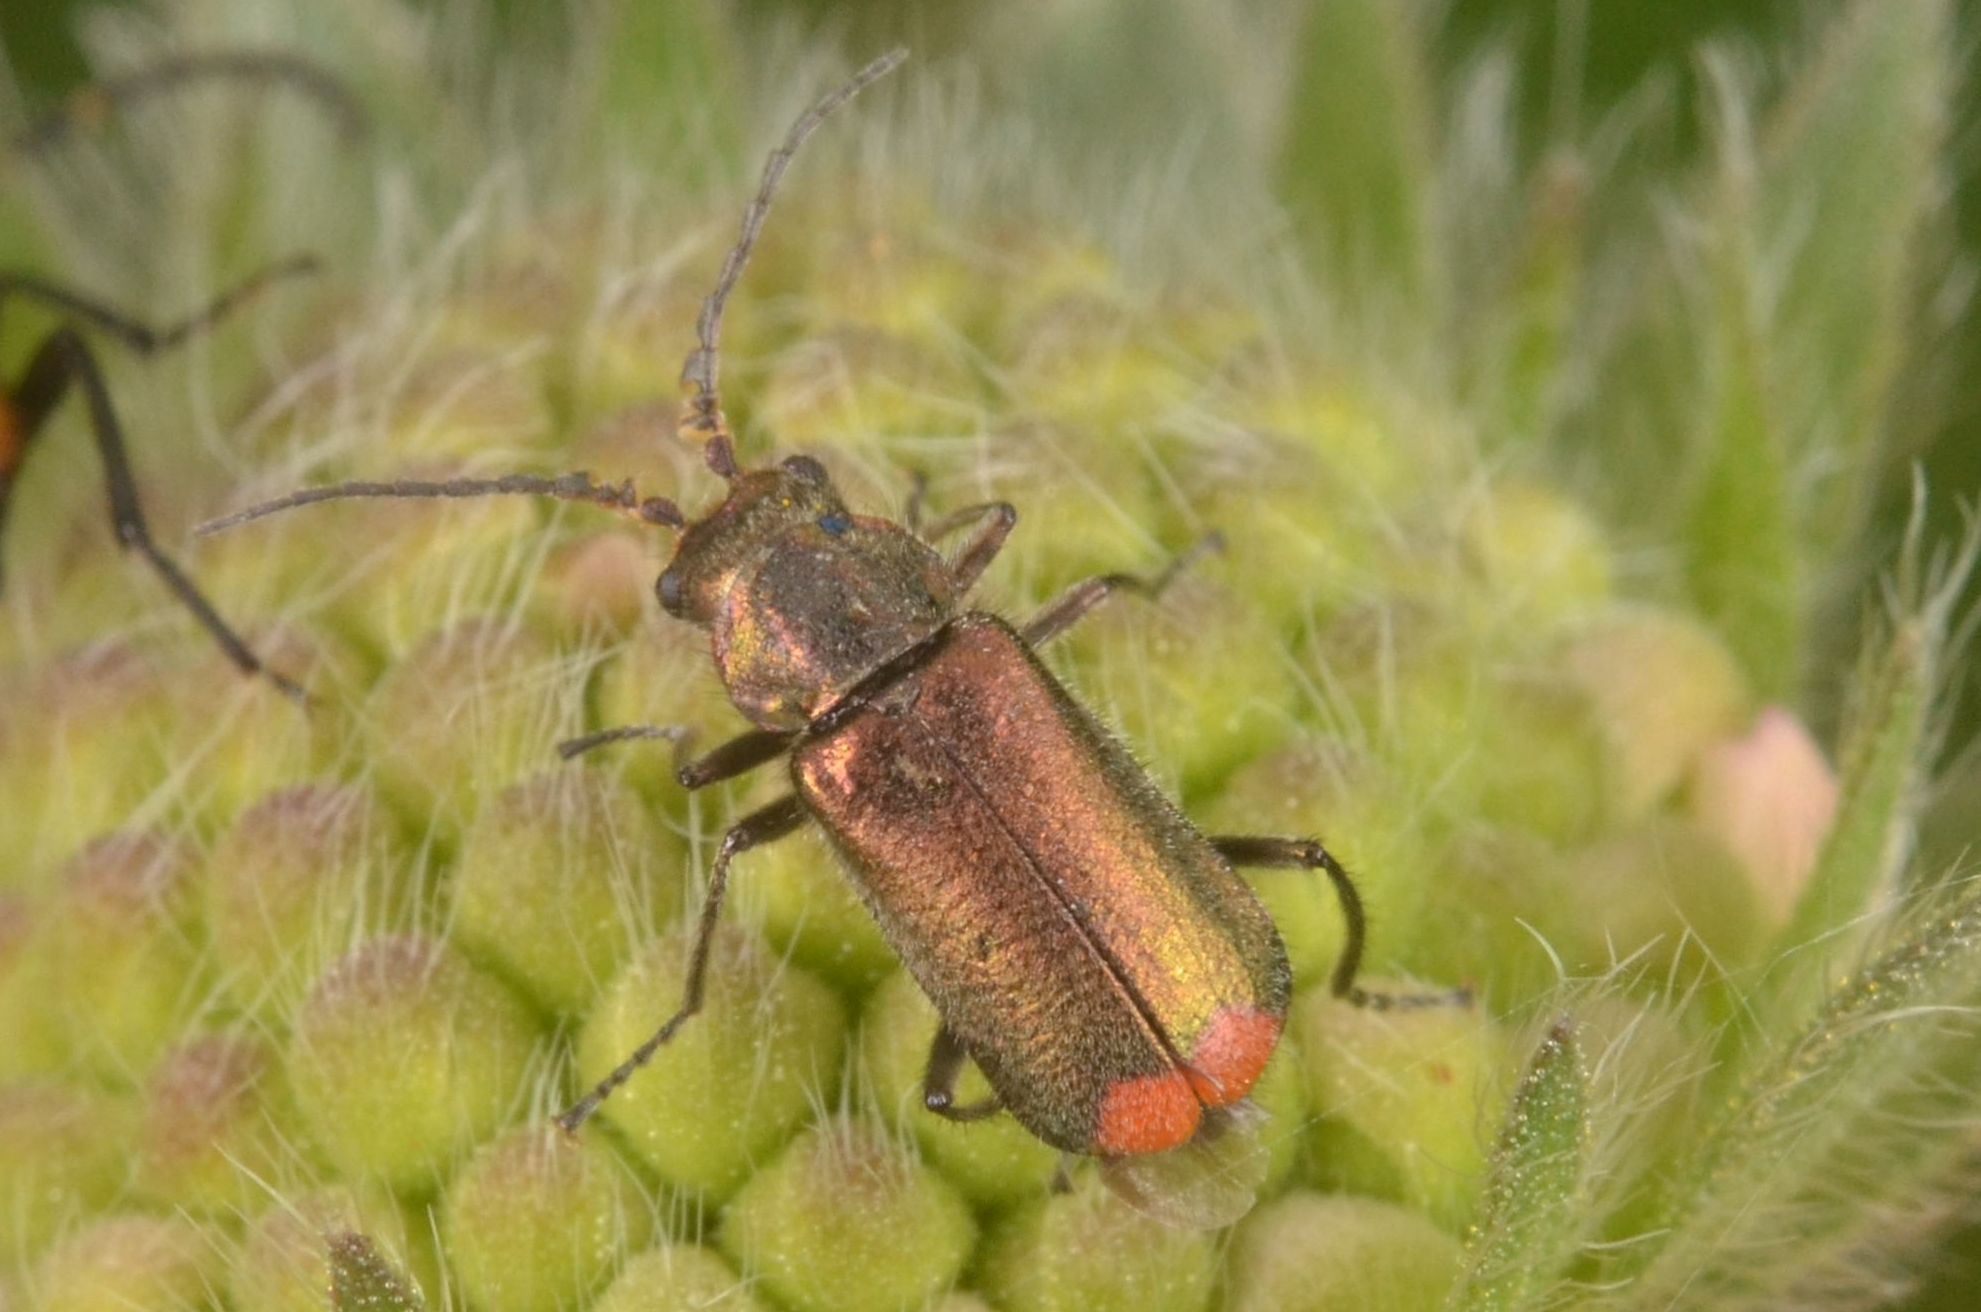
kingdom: Animalia
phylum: Arthropoda
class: Insecta
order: Coleoptera
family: Melyridae
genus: Malachius
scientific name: Malachius bipustulatus
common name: Malachite beetle
